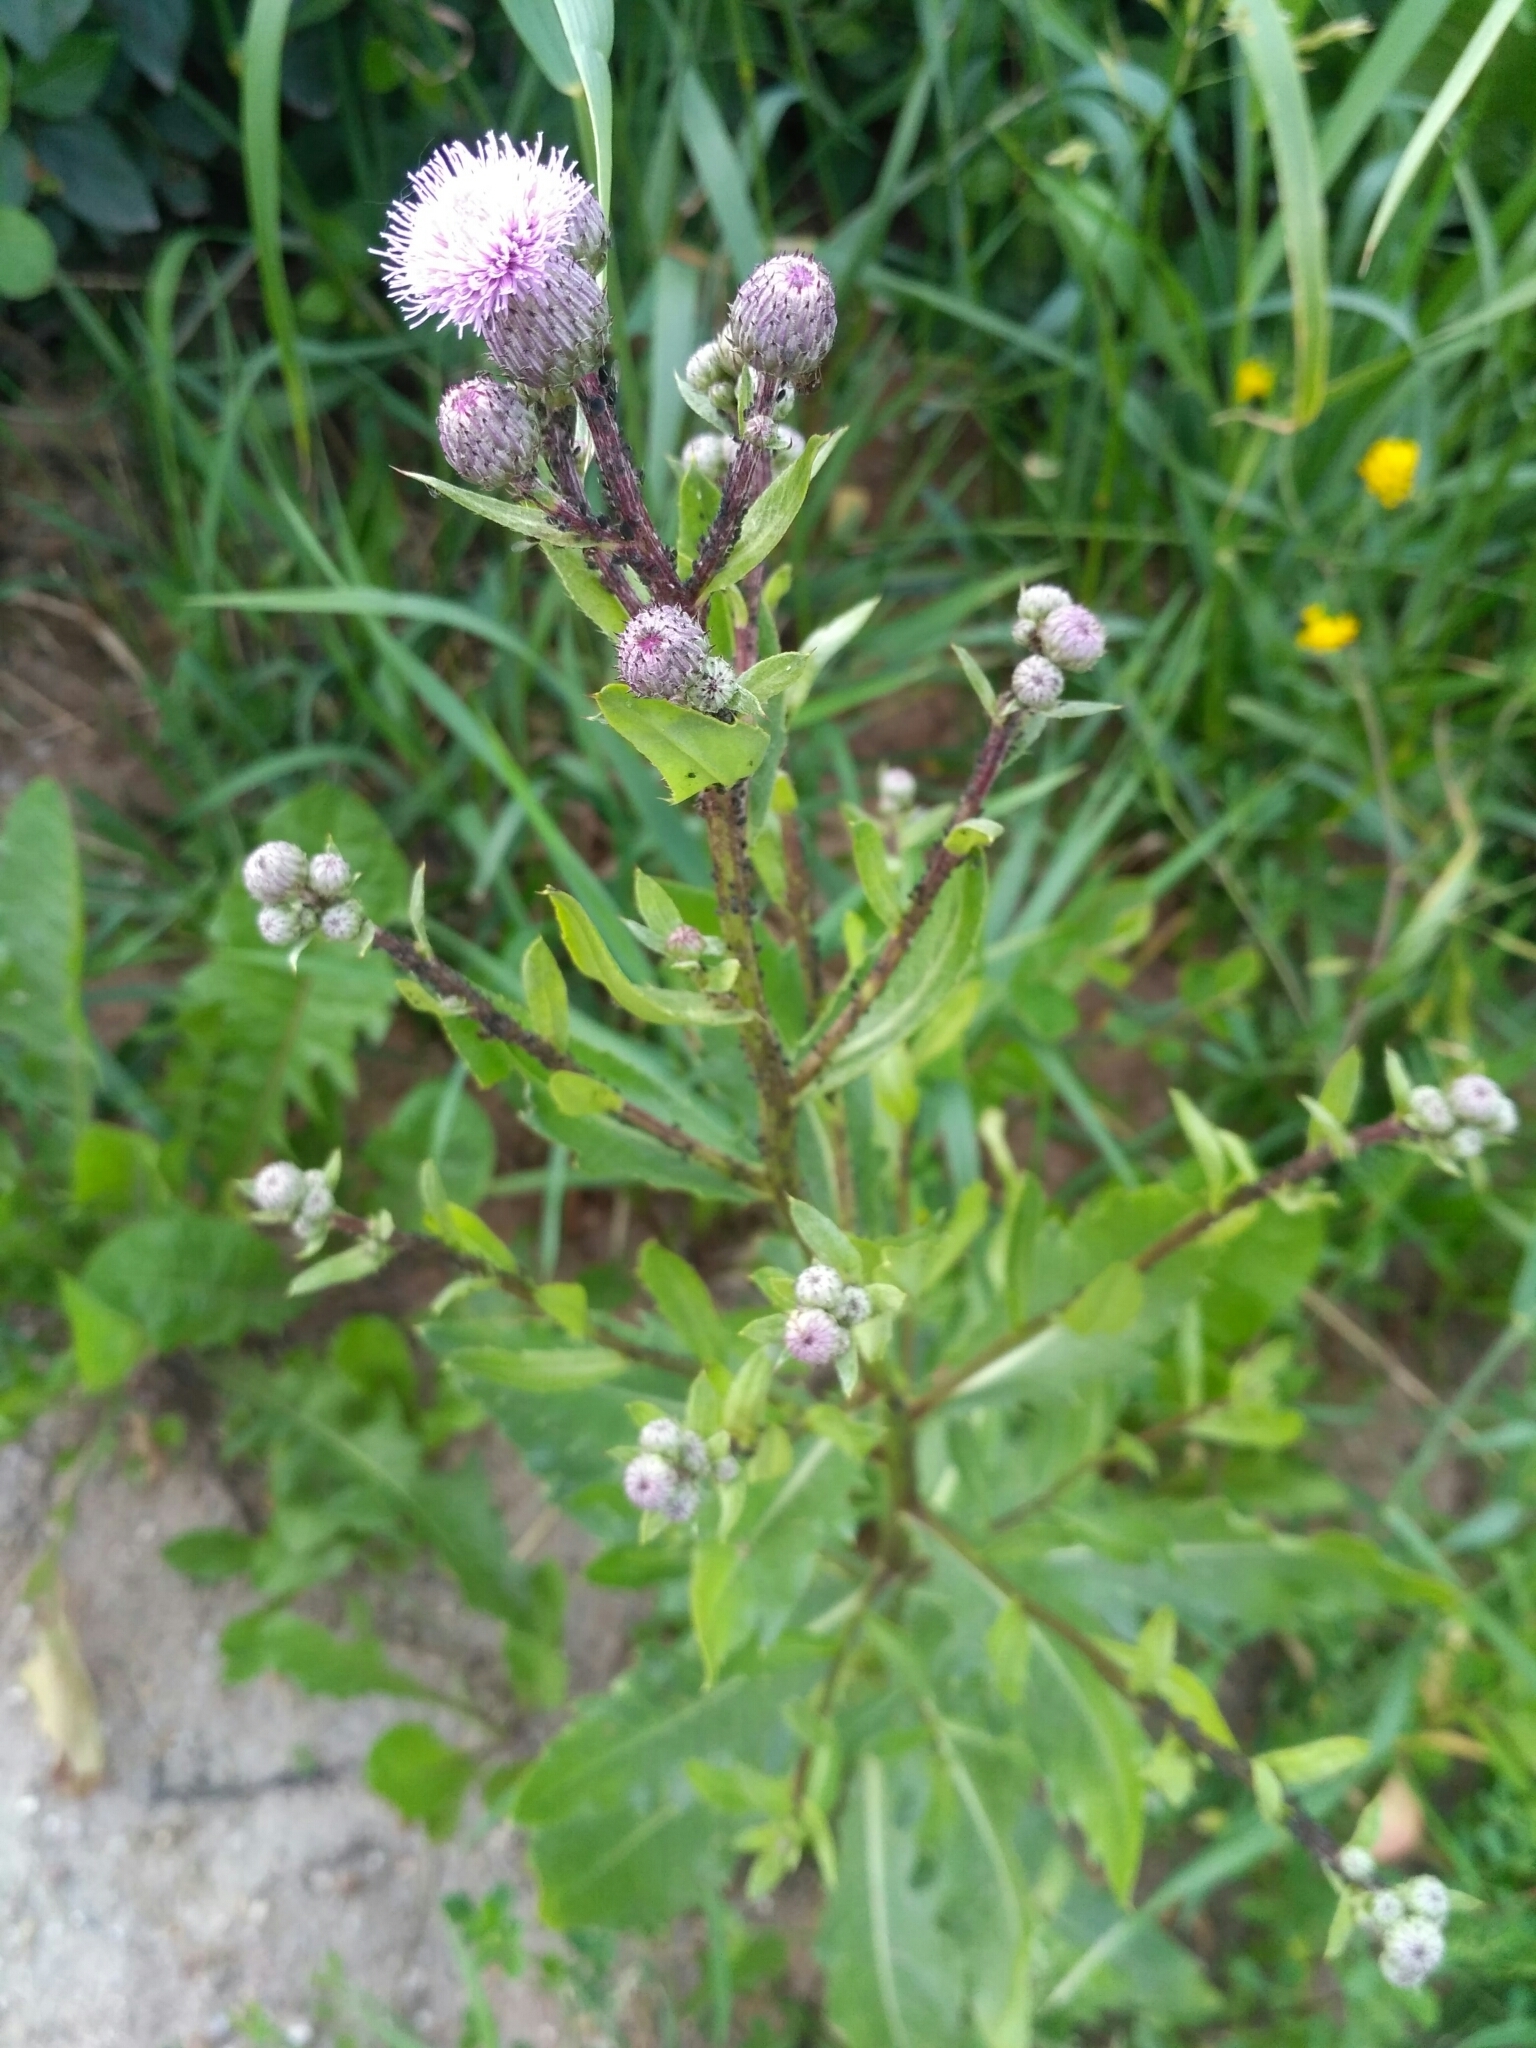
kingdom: Plantae
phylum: Tracheophyta
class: Magnoliopsida
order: Asterales
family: Asteraceae
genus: Cirsium
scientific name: Cirsium arvense
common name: Creeping thistle
